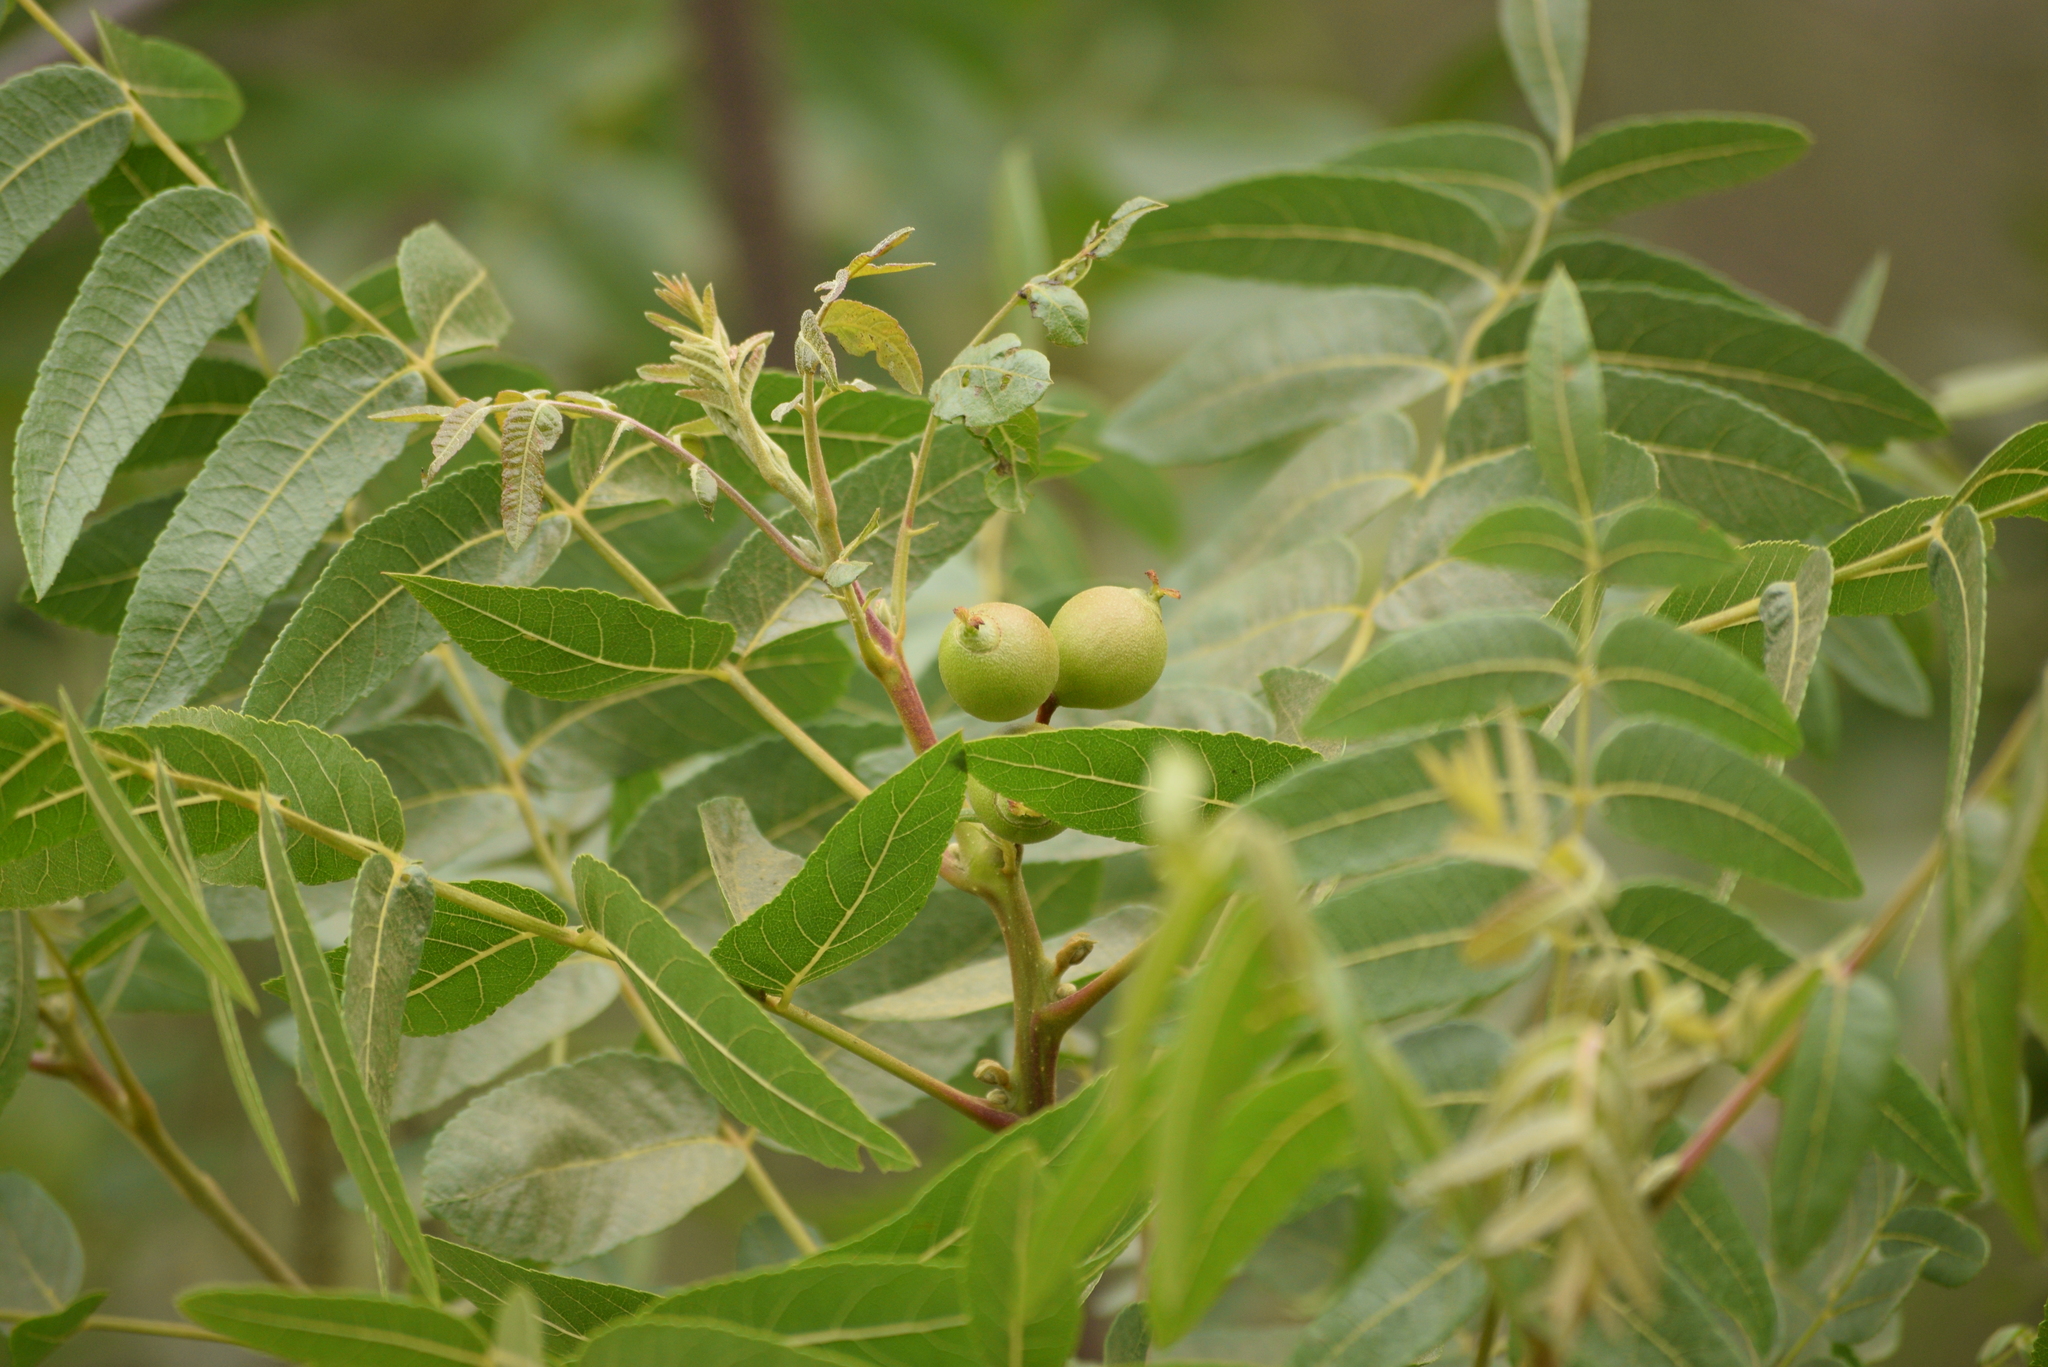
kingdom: Plantae
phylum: Tracheophyta
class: Magnoliopsida
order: Fagales
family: Juglandaceae
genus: Juglans
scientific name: Juglans californica
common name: Southern california black walnut
